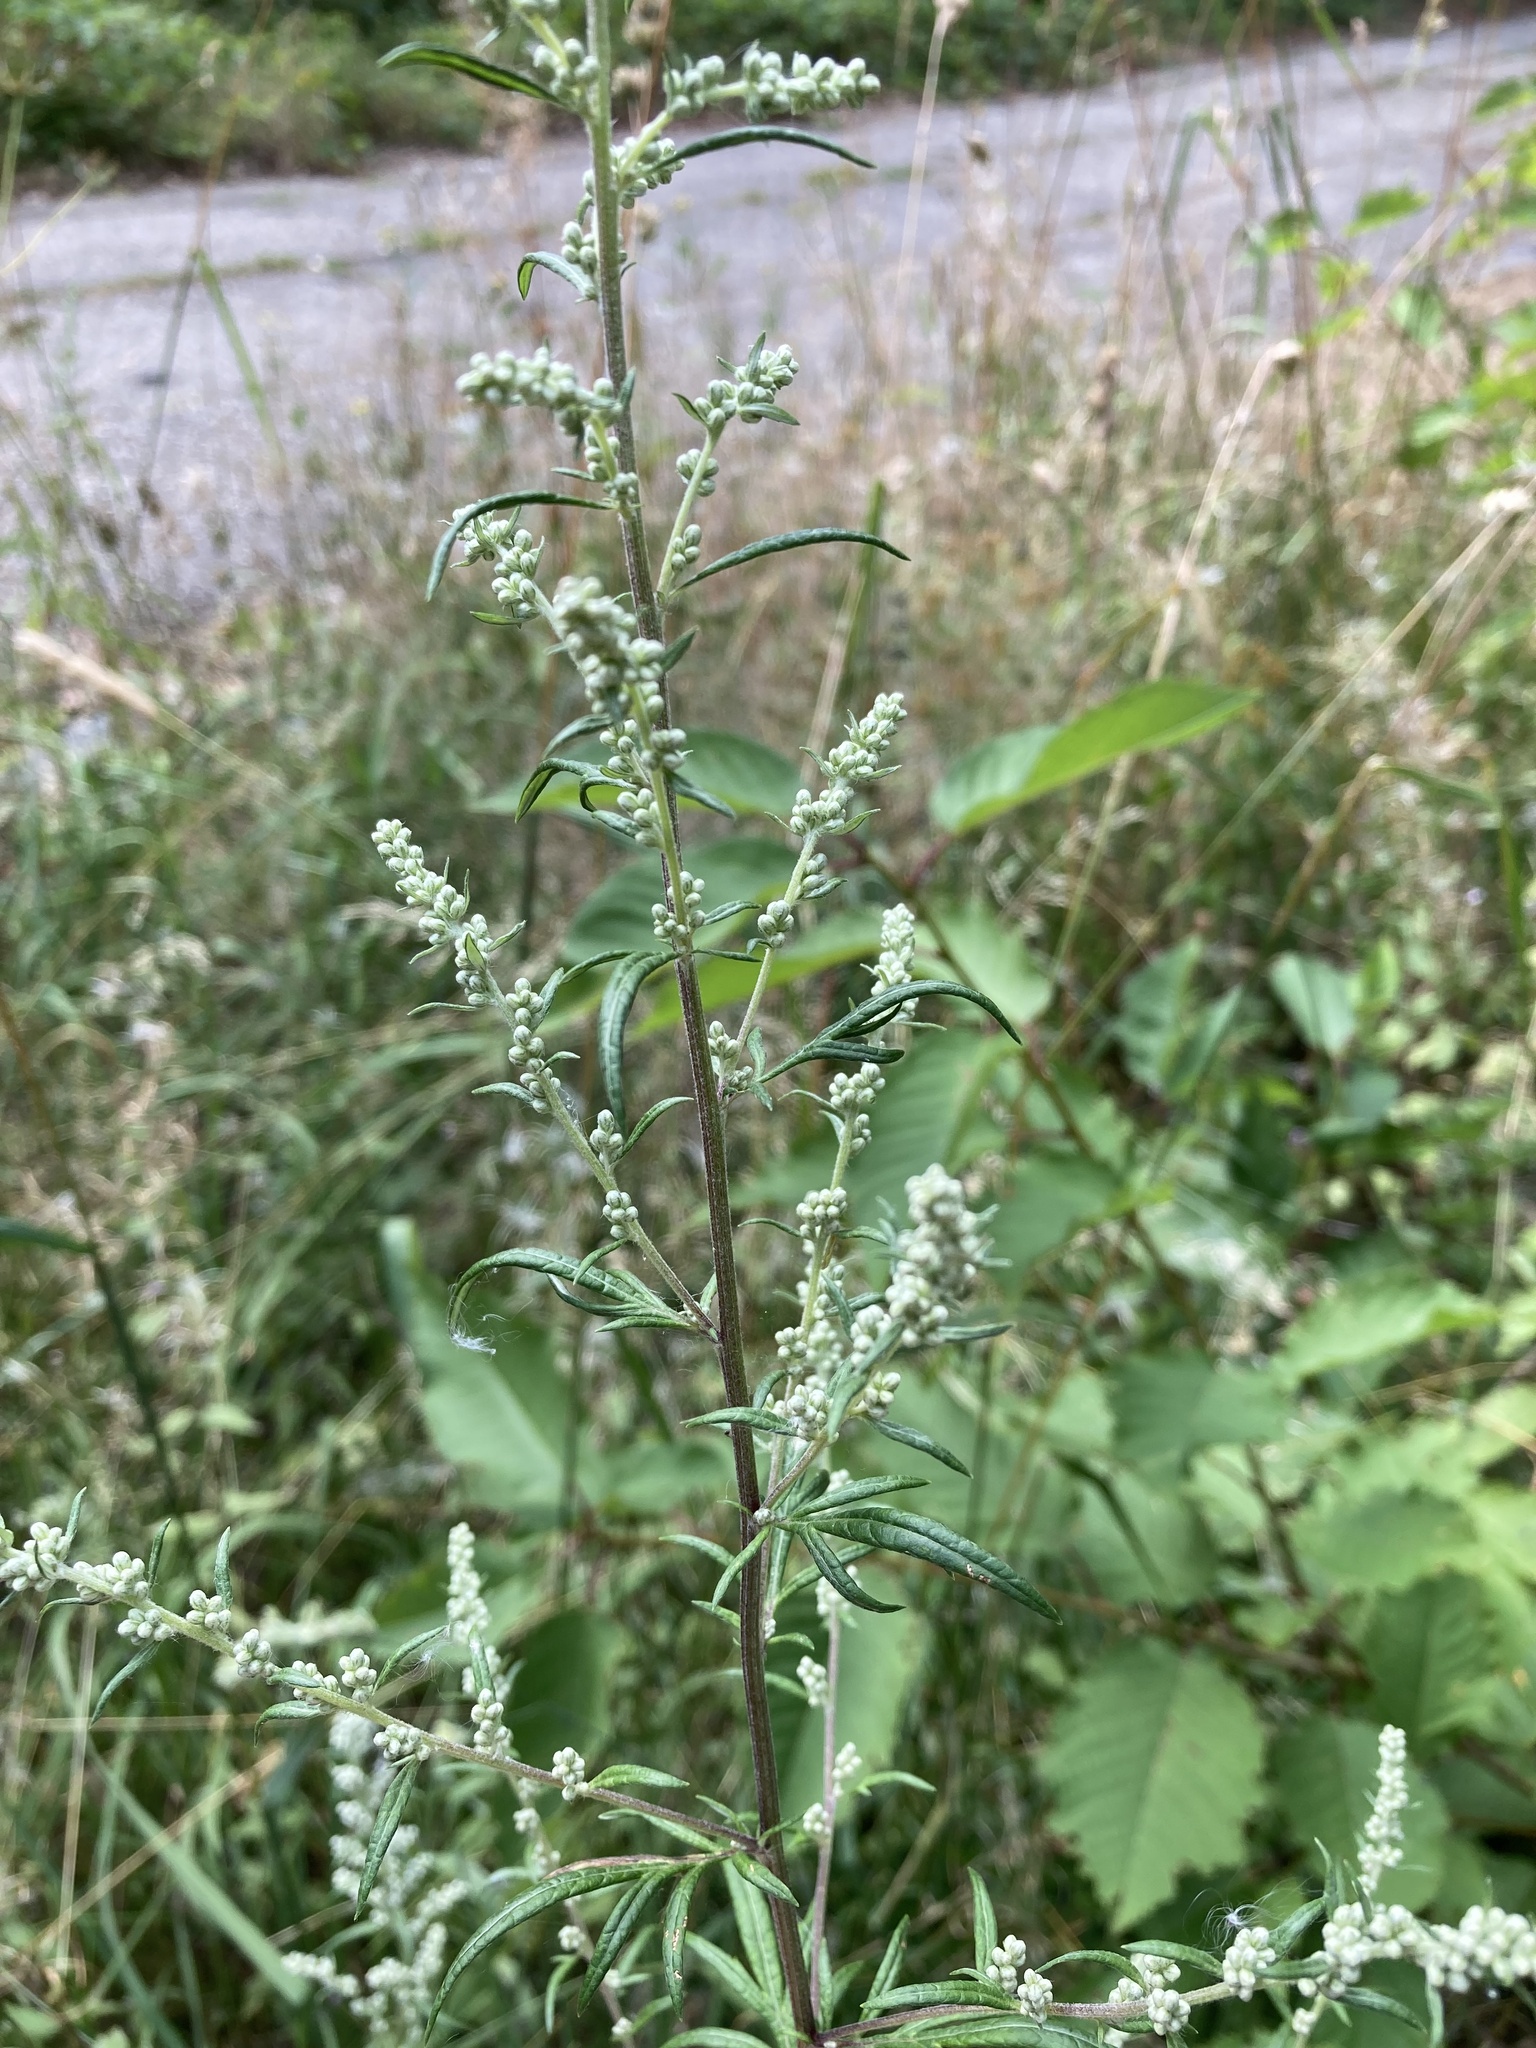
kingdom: Plantae
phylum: Tracheophyta
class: Magnoliopsida
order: Asterales
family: Asteraceae
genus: Artemisia
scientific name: Artemisia vulgaris
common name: Mugwort
